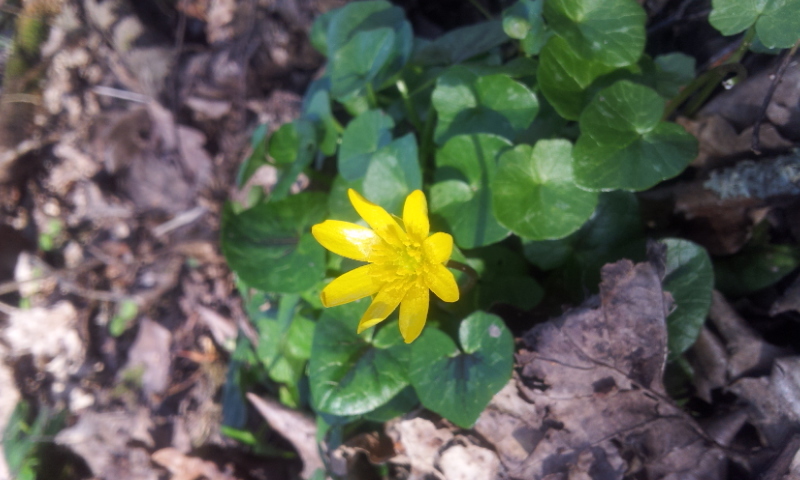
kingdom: Plantae
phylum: Tracheophyta
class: Magnoliopsida
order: Ranunculales
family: Ranunculaceae
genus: Ficaria
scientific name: Ficaria verna
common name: Lesser celandine
